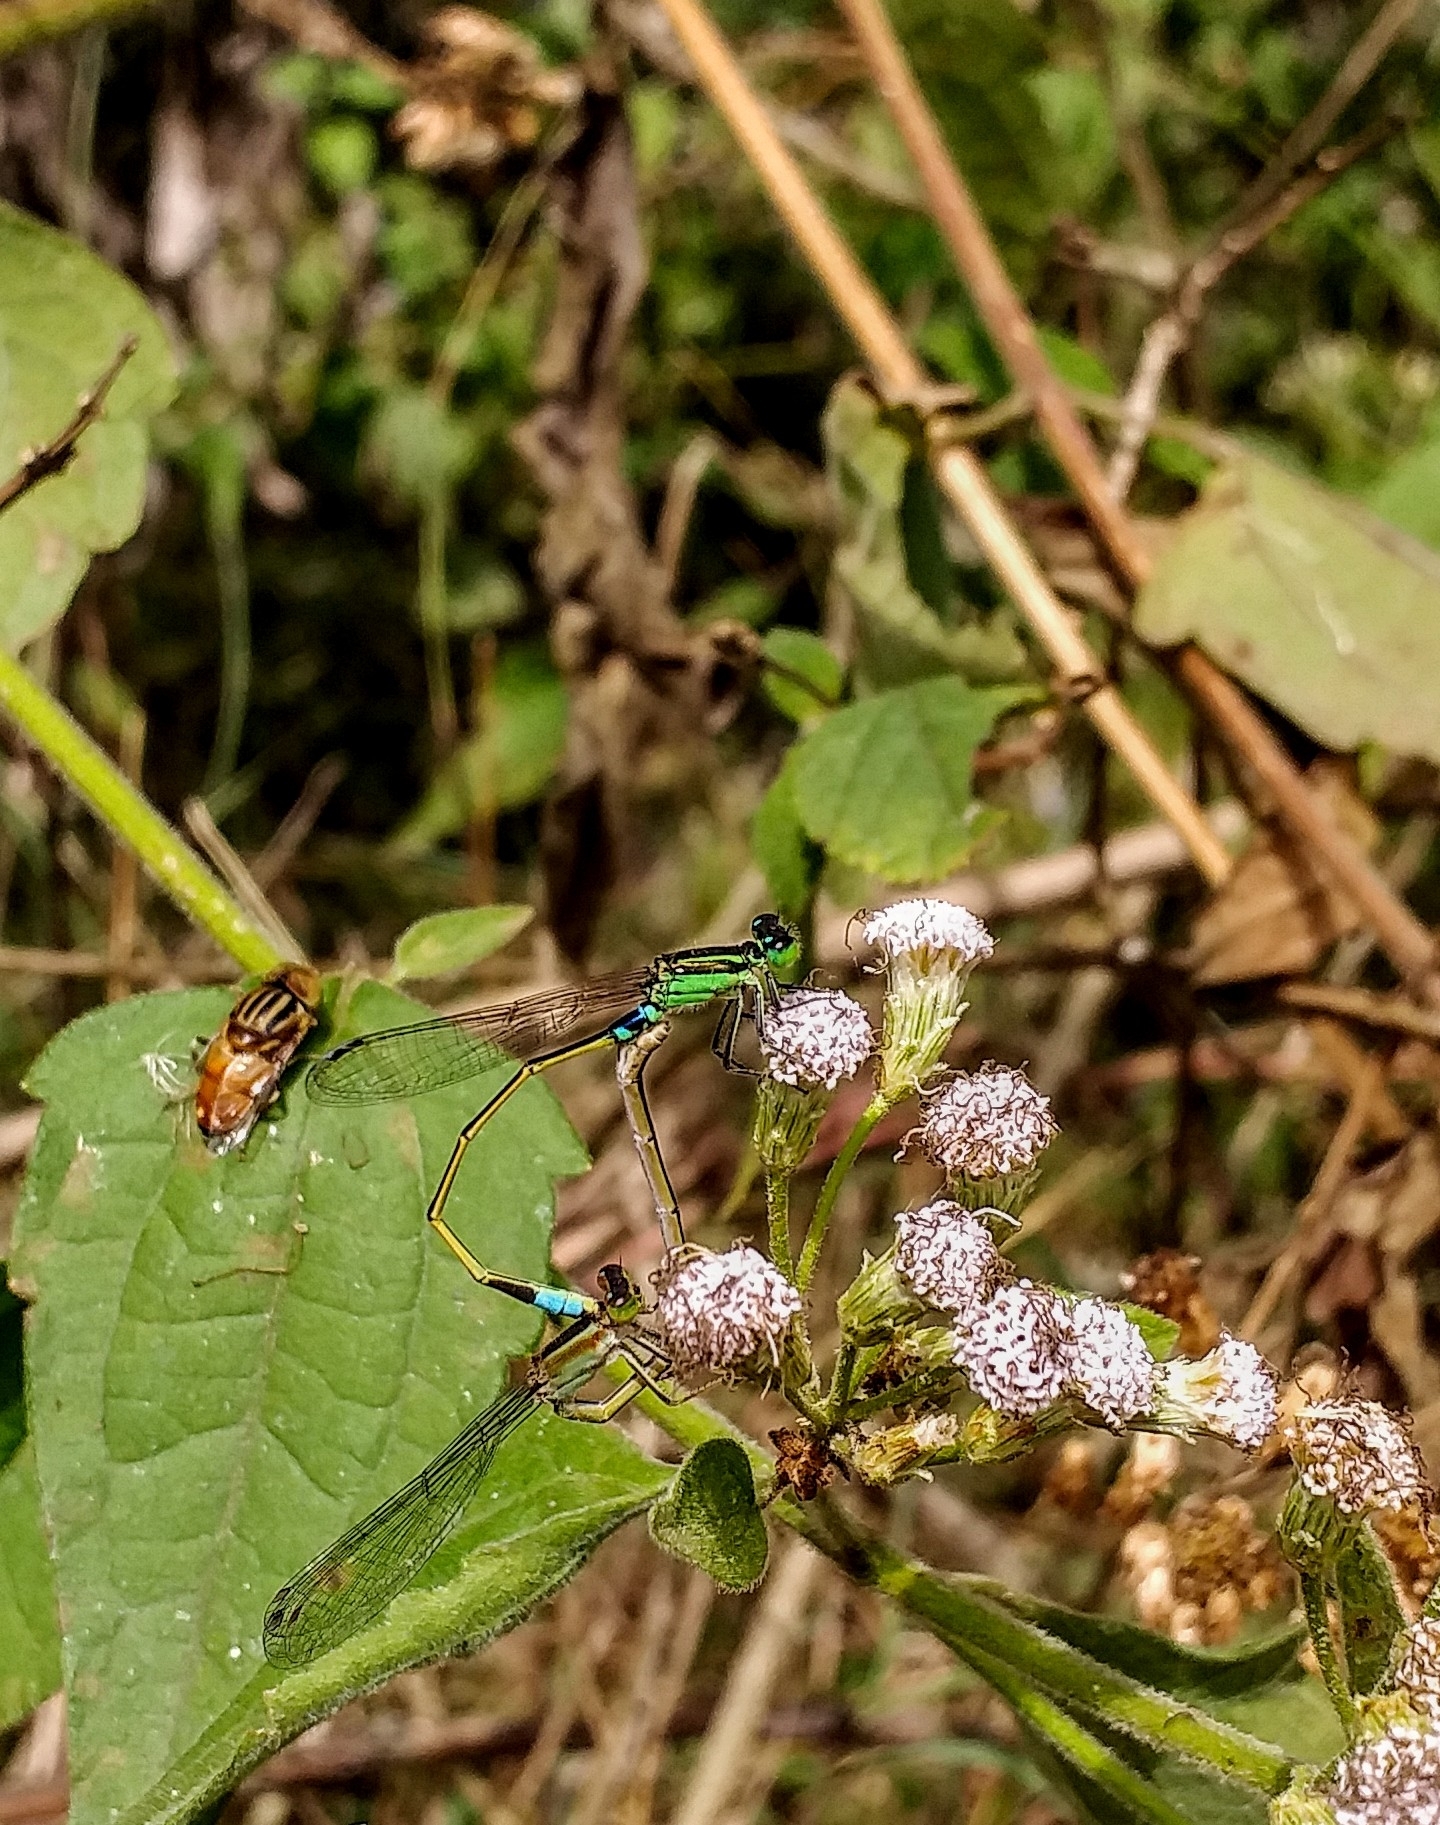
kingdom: Animalia
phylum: Arthropoda
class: Insecta
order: Odonata
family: Coenagrionidae
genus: Ischnura
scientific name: Ischnura senegalensis
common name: Tropical bluetail
